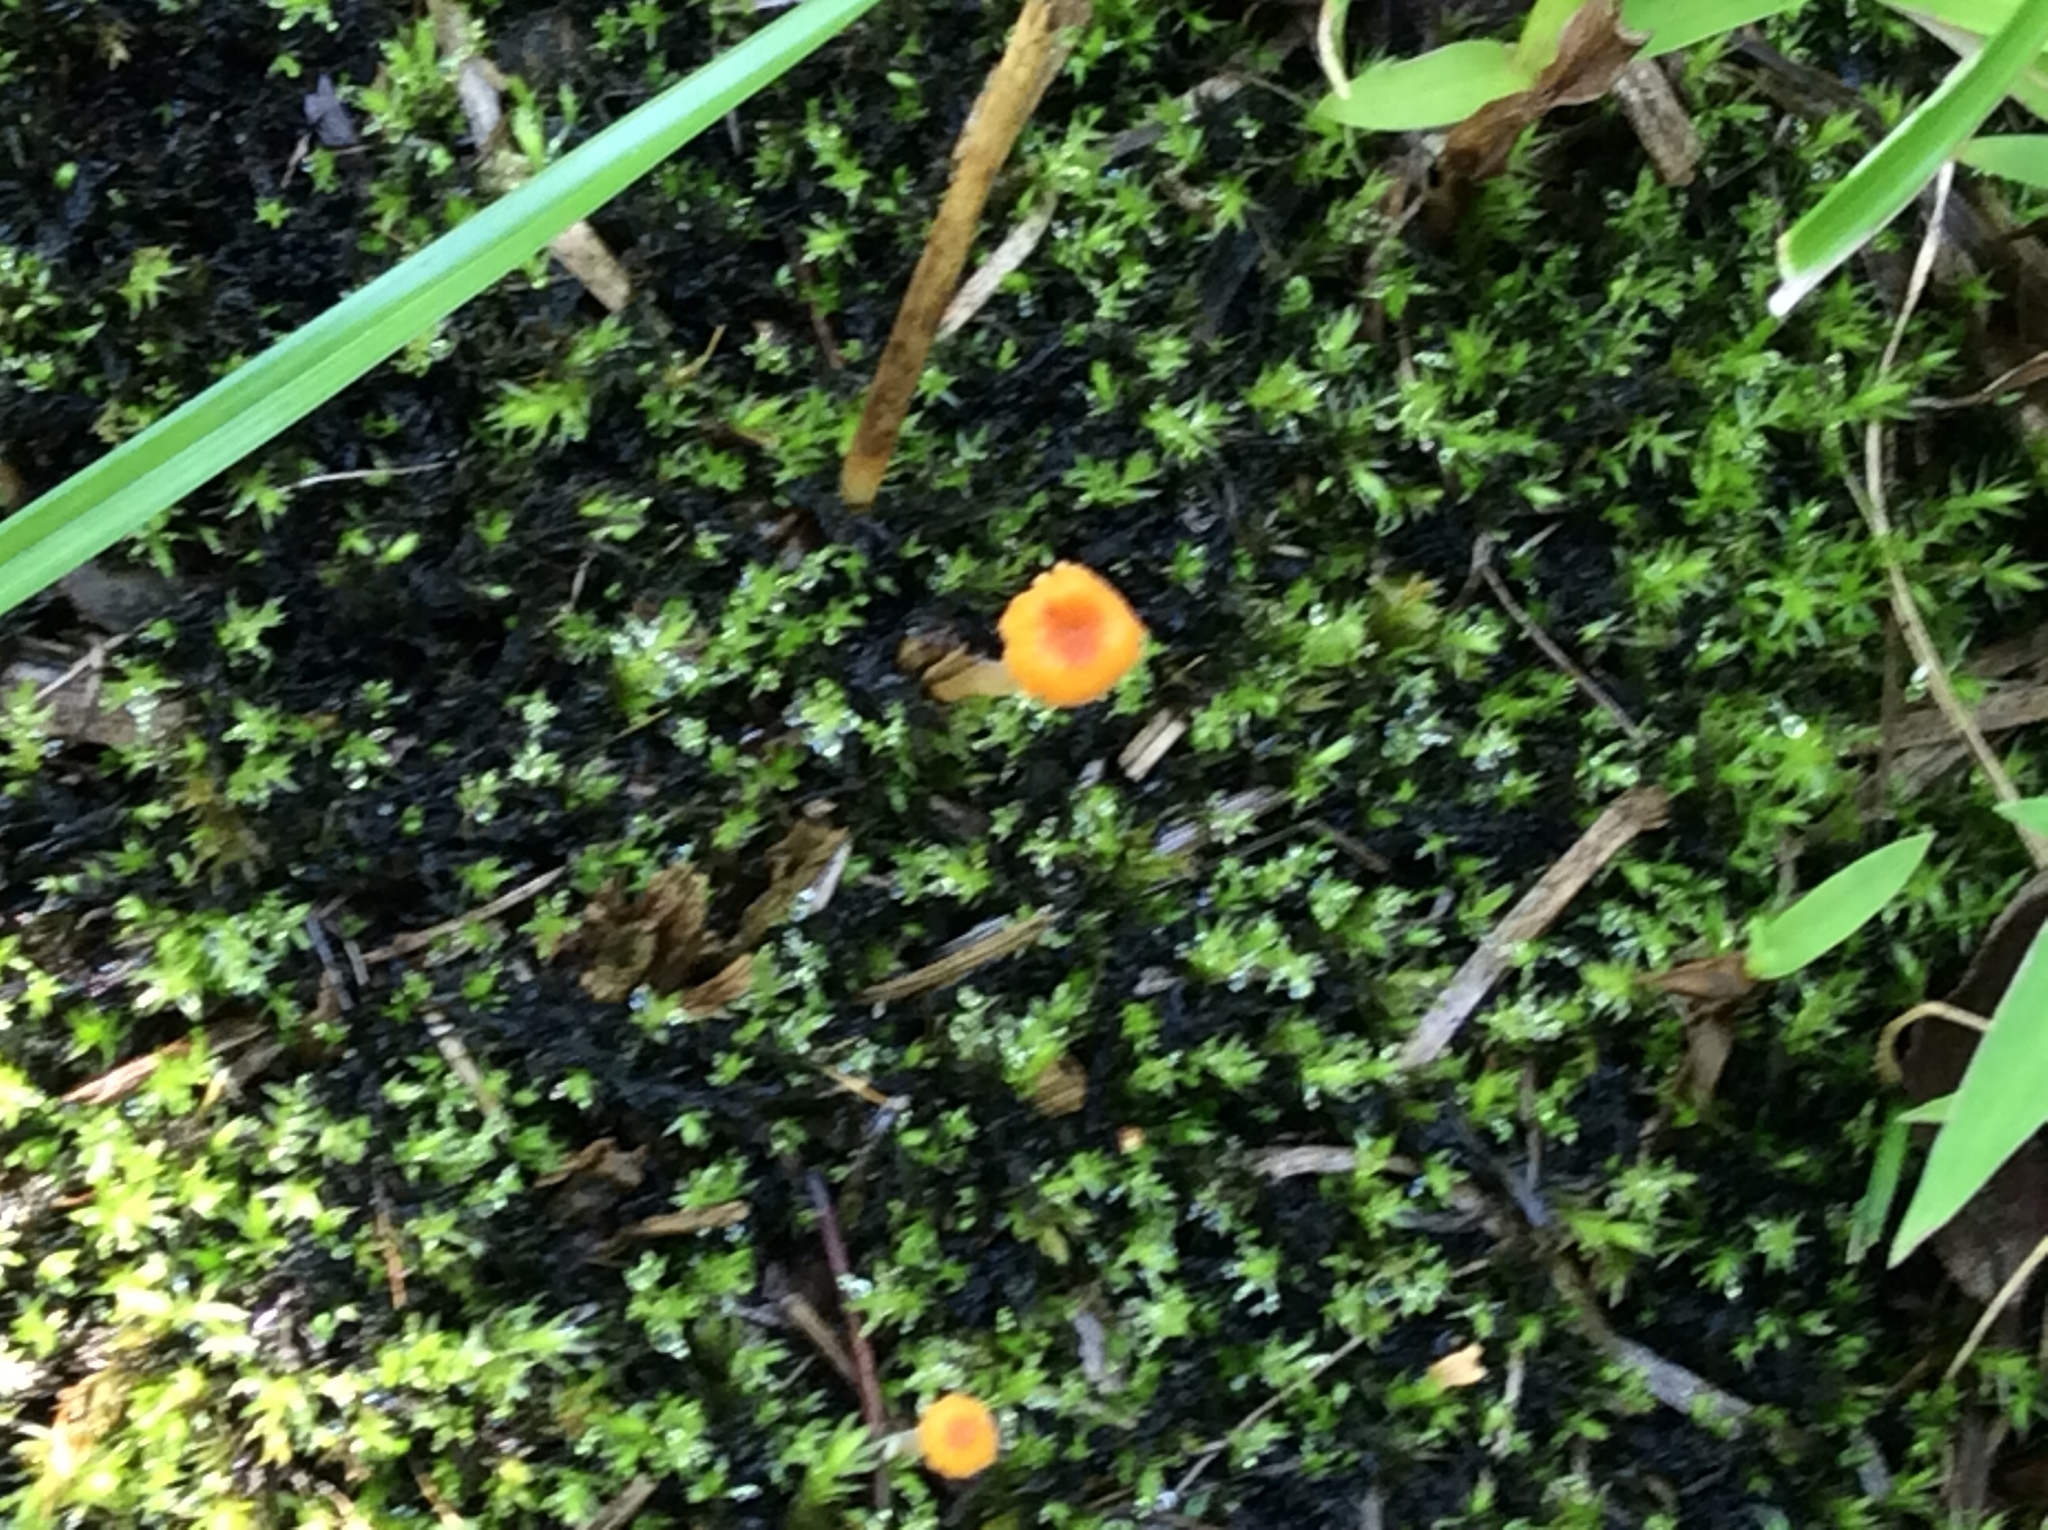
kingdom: Fungi
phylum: Basidiomycota
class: Agaricomycetes
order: Hymenochaetales
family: Rickenellaceae
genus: Rickenella
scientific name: Rickenella fibula
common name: Orange mosscap
